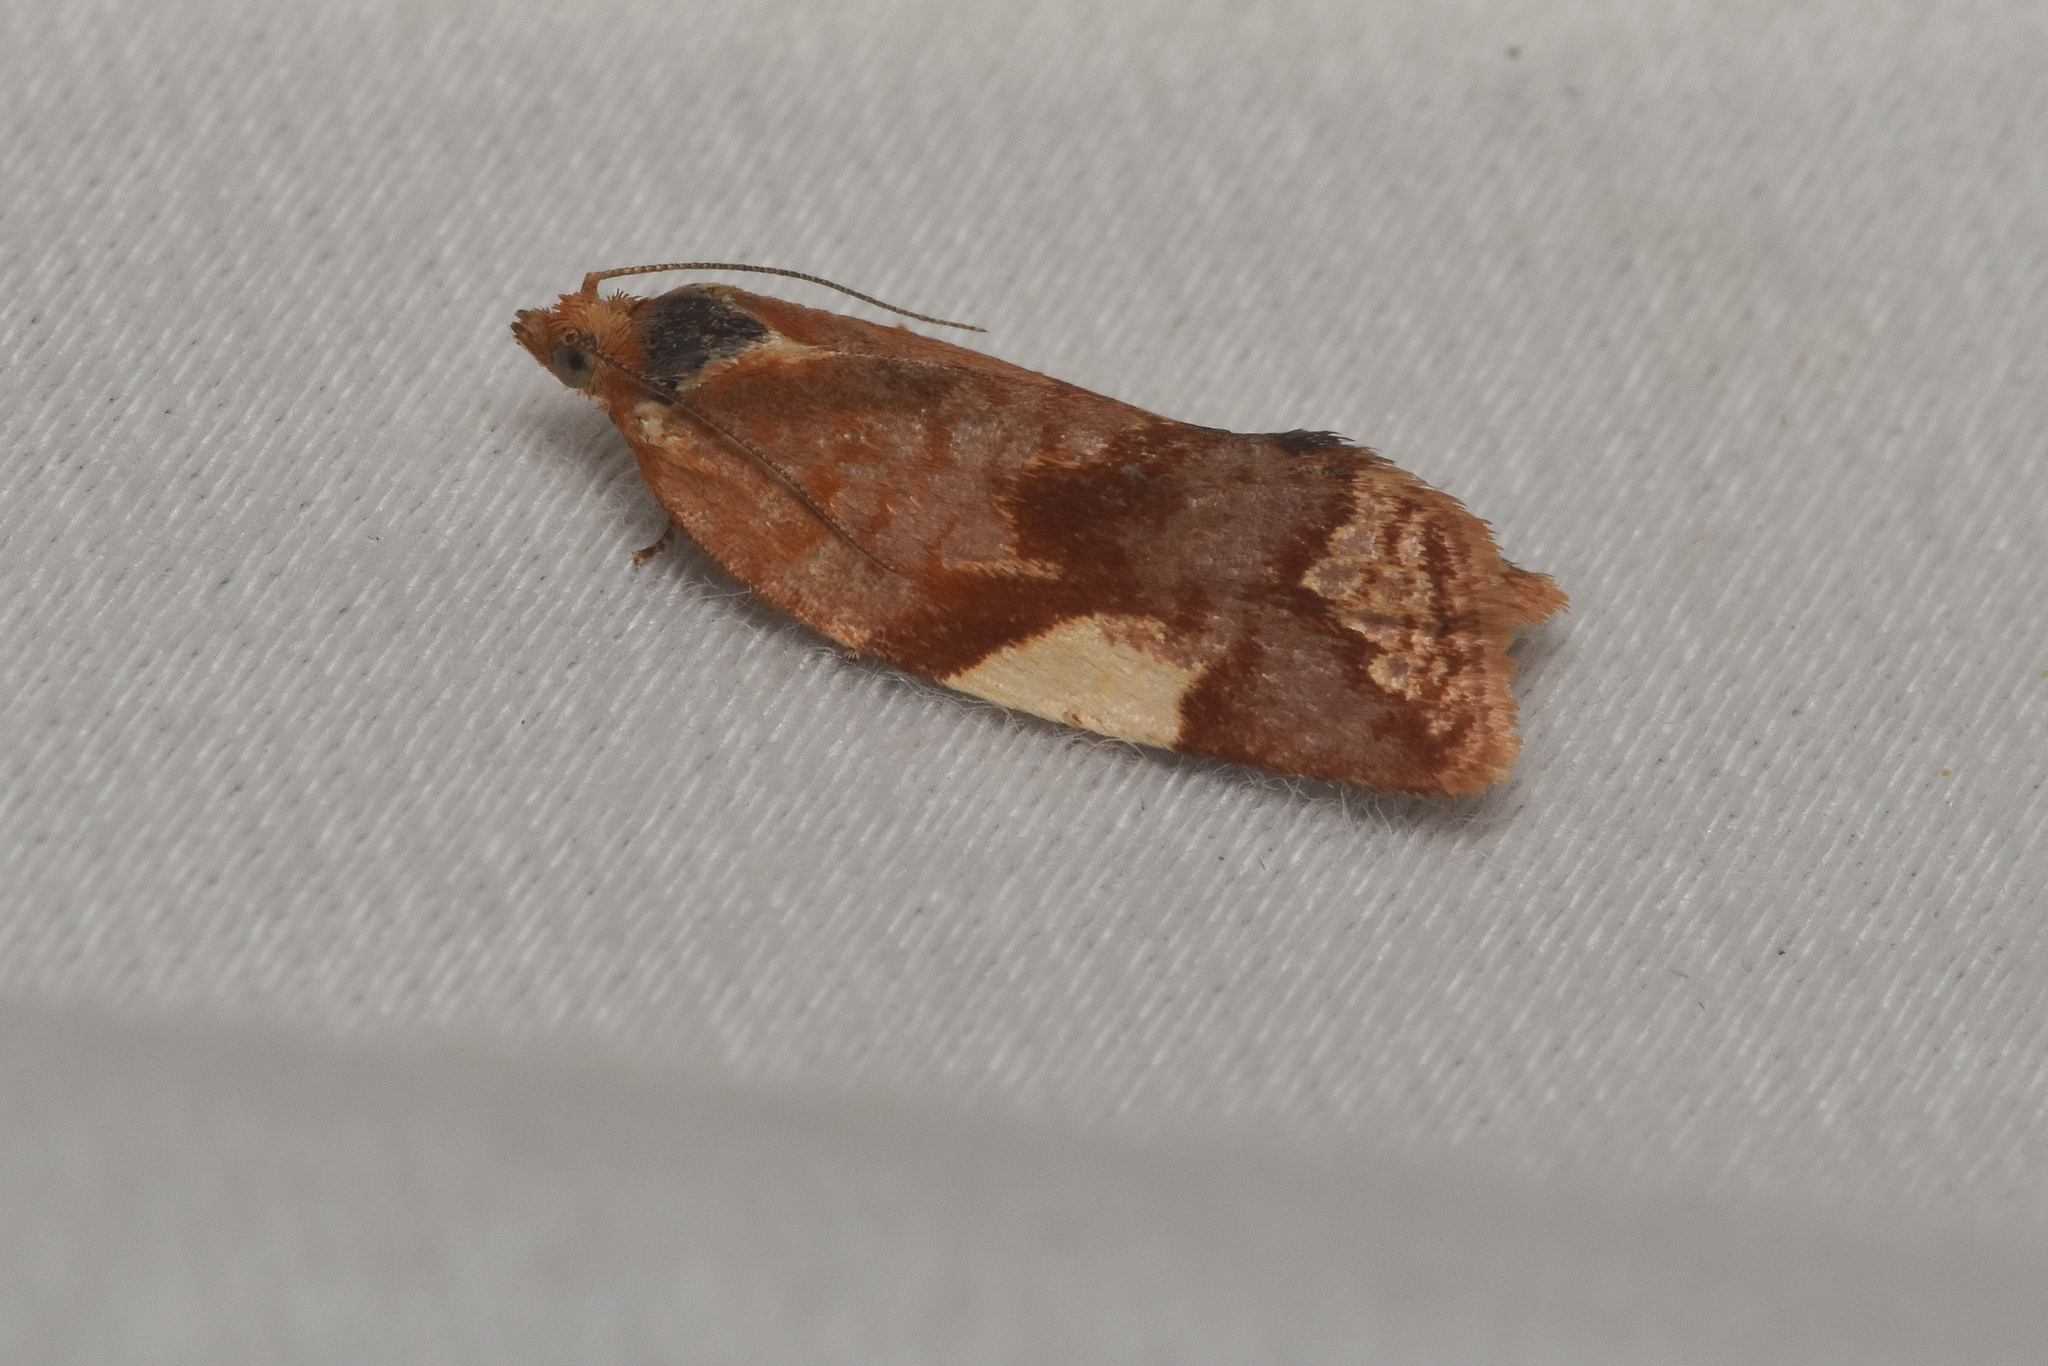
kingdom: Animalia
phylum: Arthropoda
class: Insecta
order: Lepidoptera
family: Tortricidae
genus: Clepsis
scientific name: Clepsis persicana
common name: White triangle tortrix
